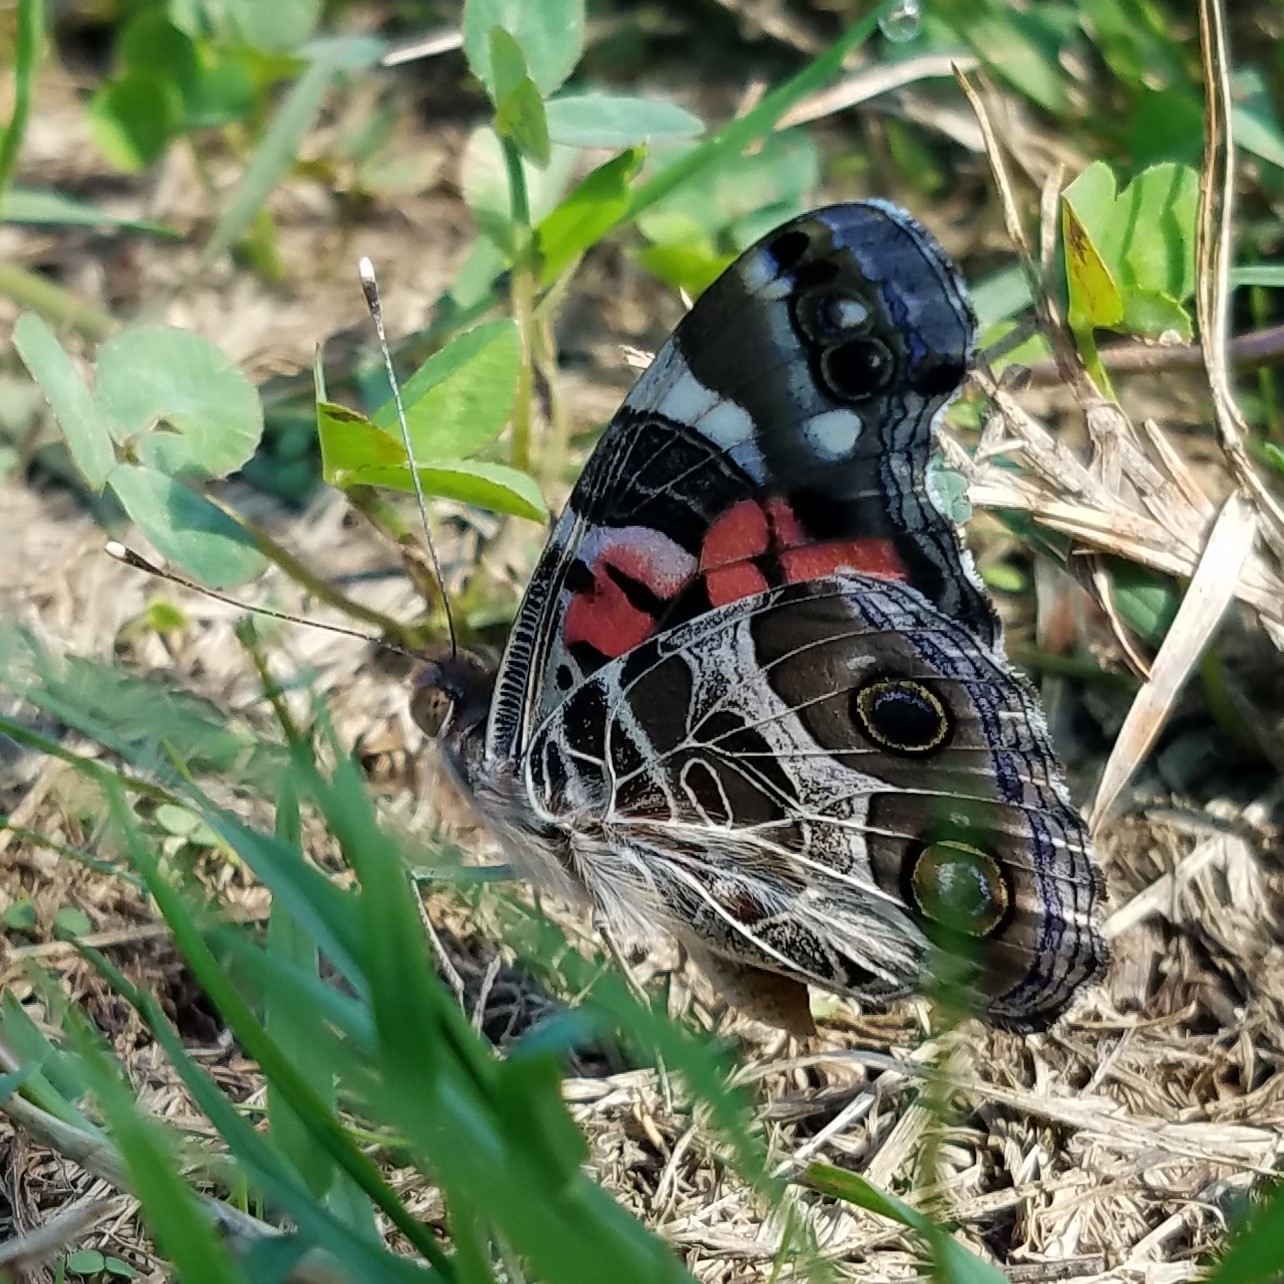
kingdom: Animalia
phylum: Arthropoda
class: Insecta
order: Lepidoptera
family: Nymphalidae
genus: Vanessa
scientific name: Vanessa virginiensis
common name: American lady
